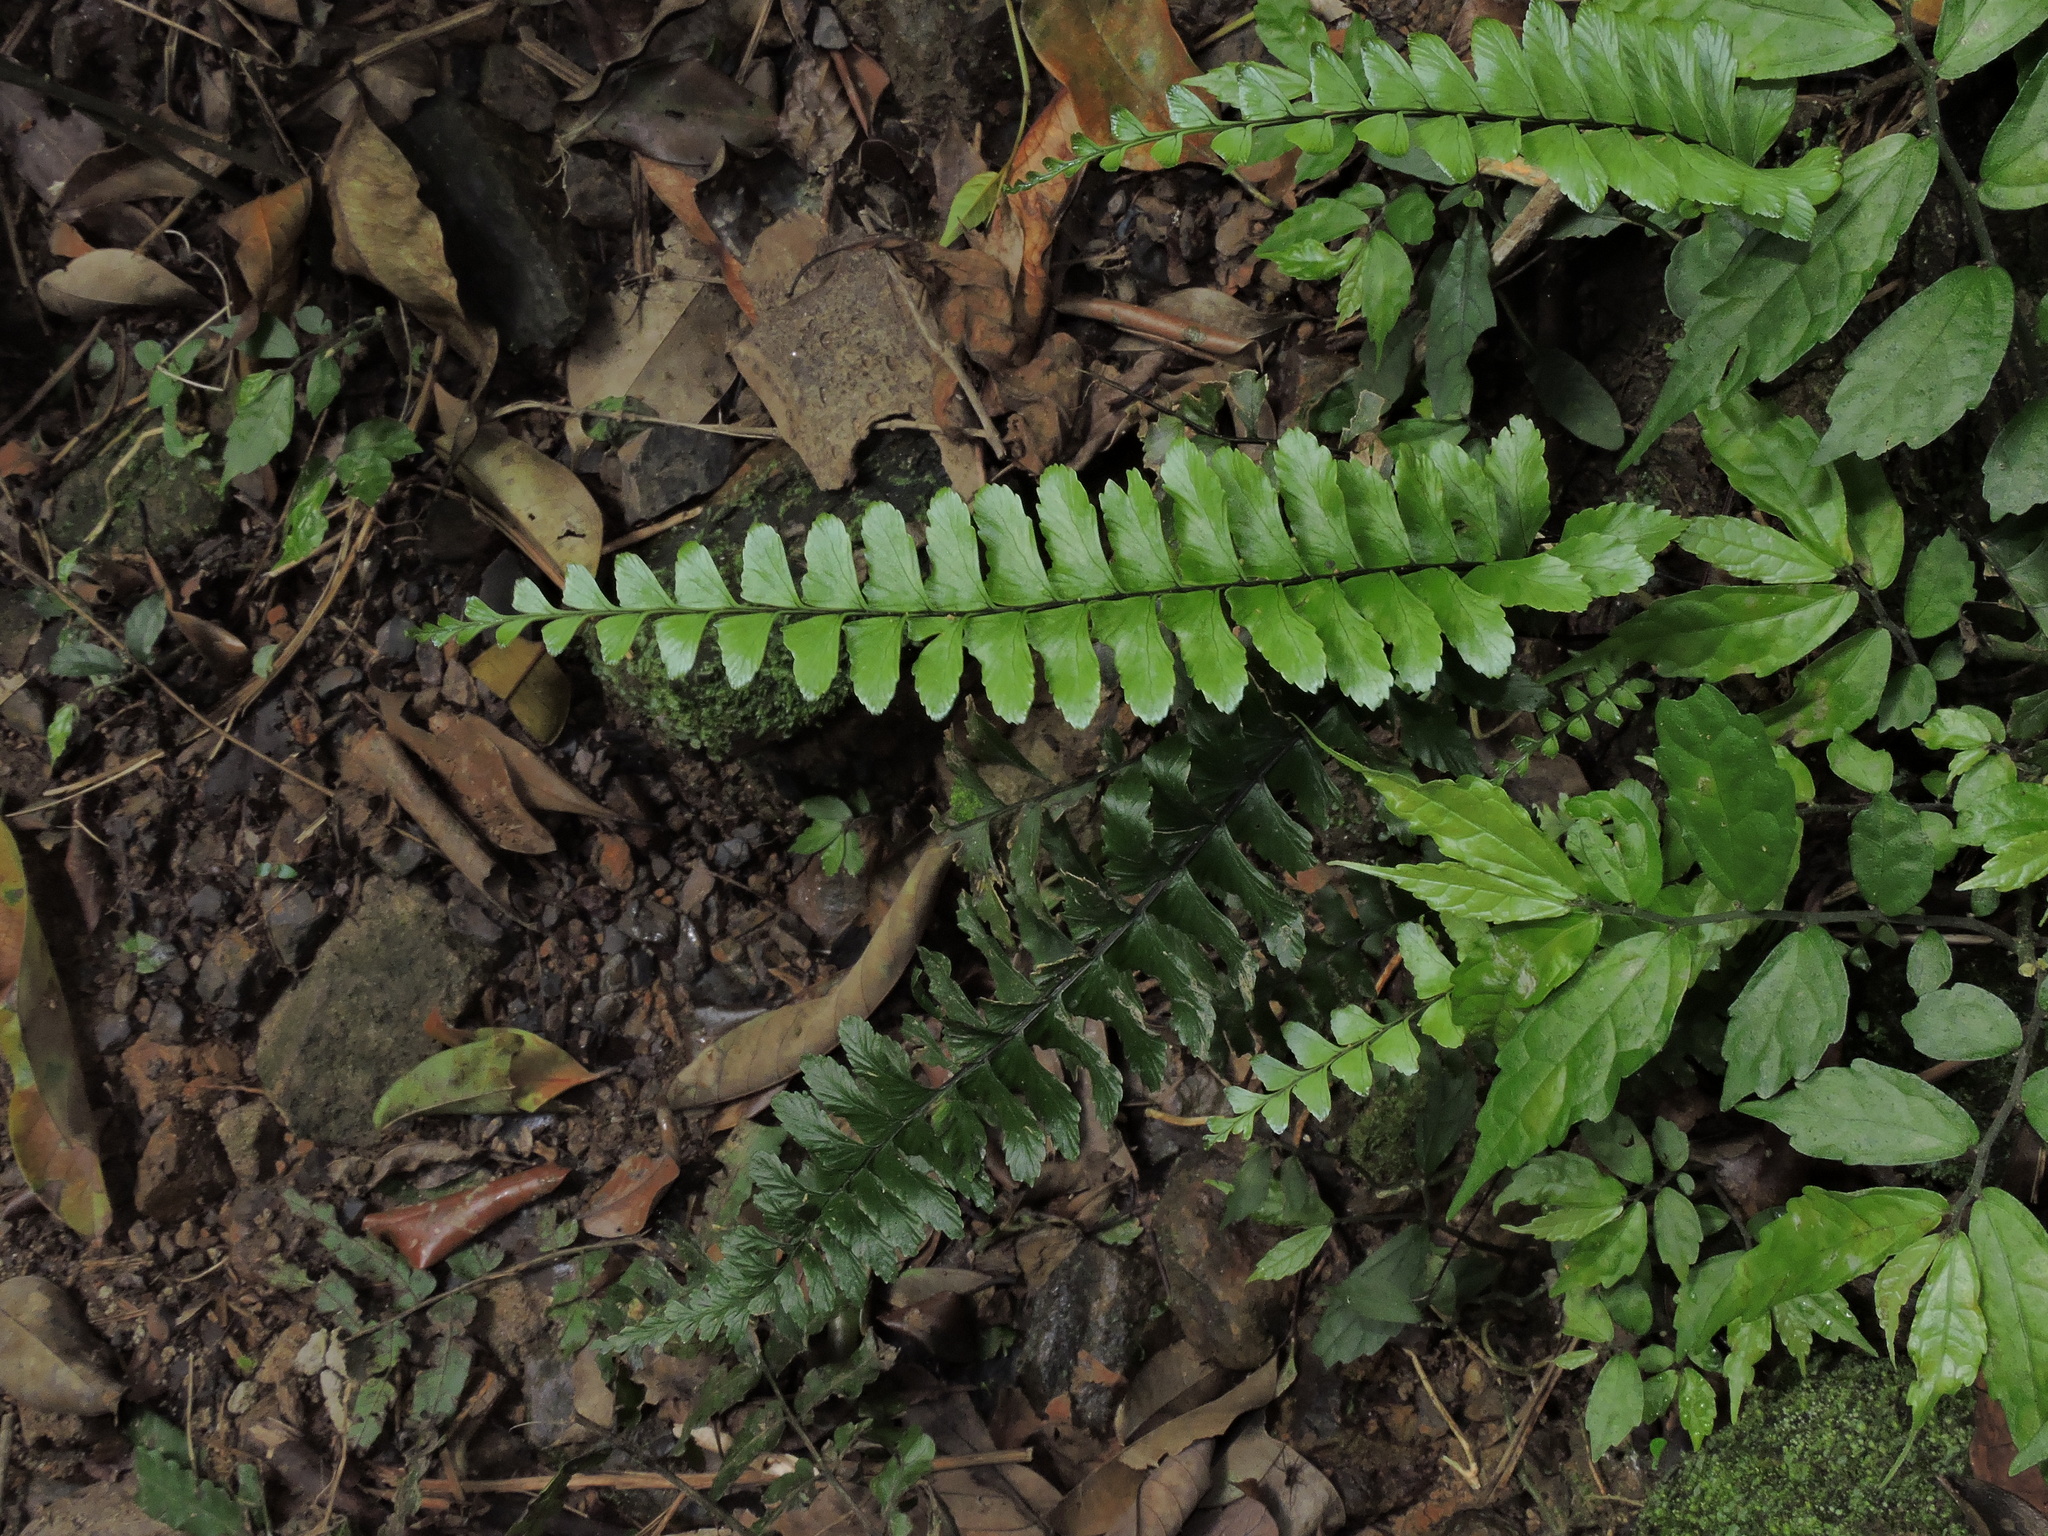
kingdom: Plantae
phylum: Tracheophyta
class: Polypodiopsida
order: Polypodiales
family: Aspleniaceae
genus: Asplenium
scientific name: Asplenium normale
